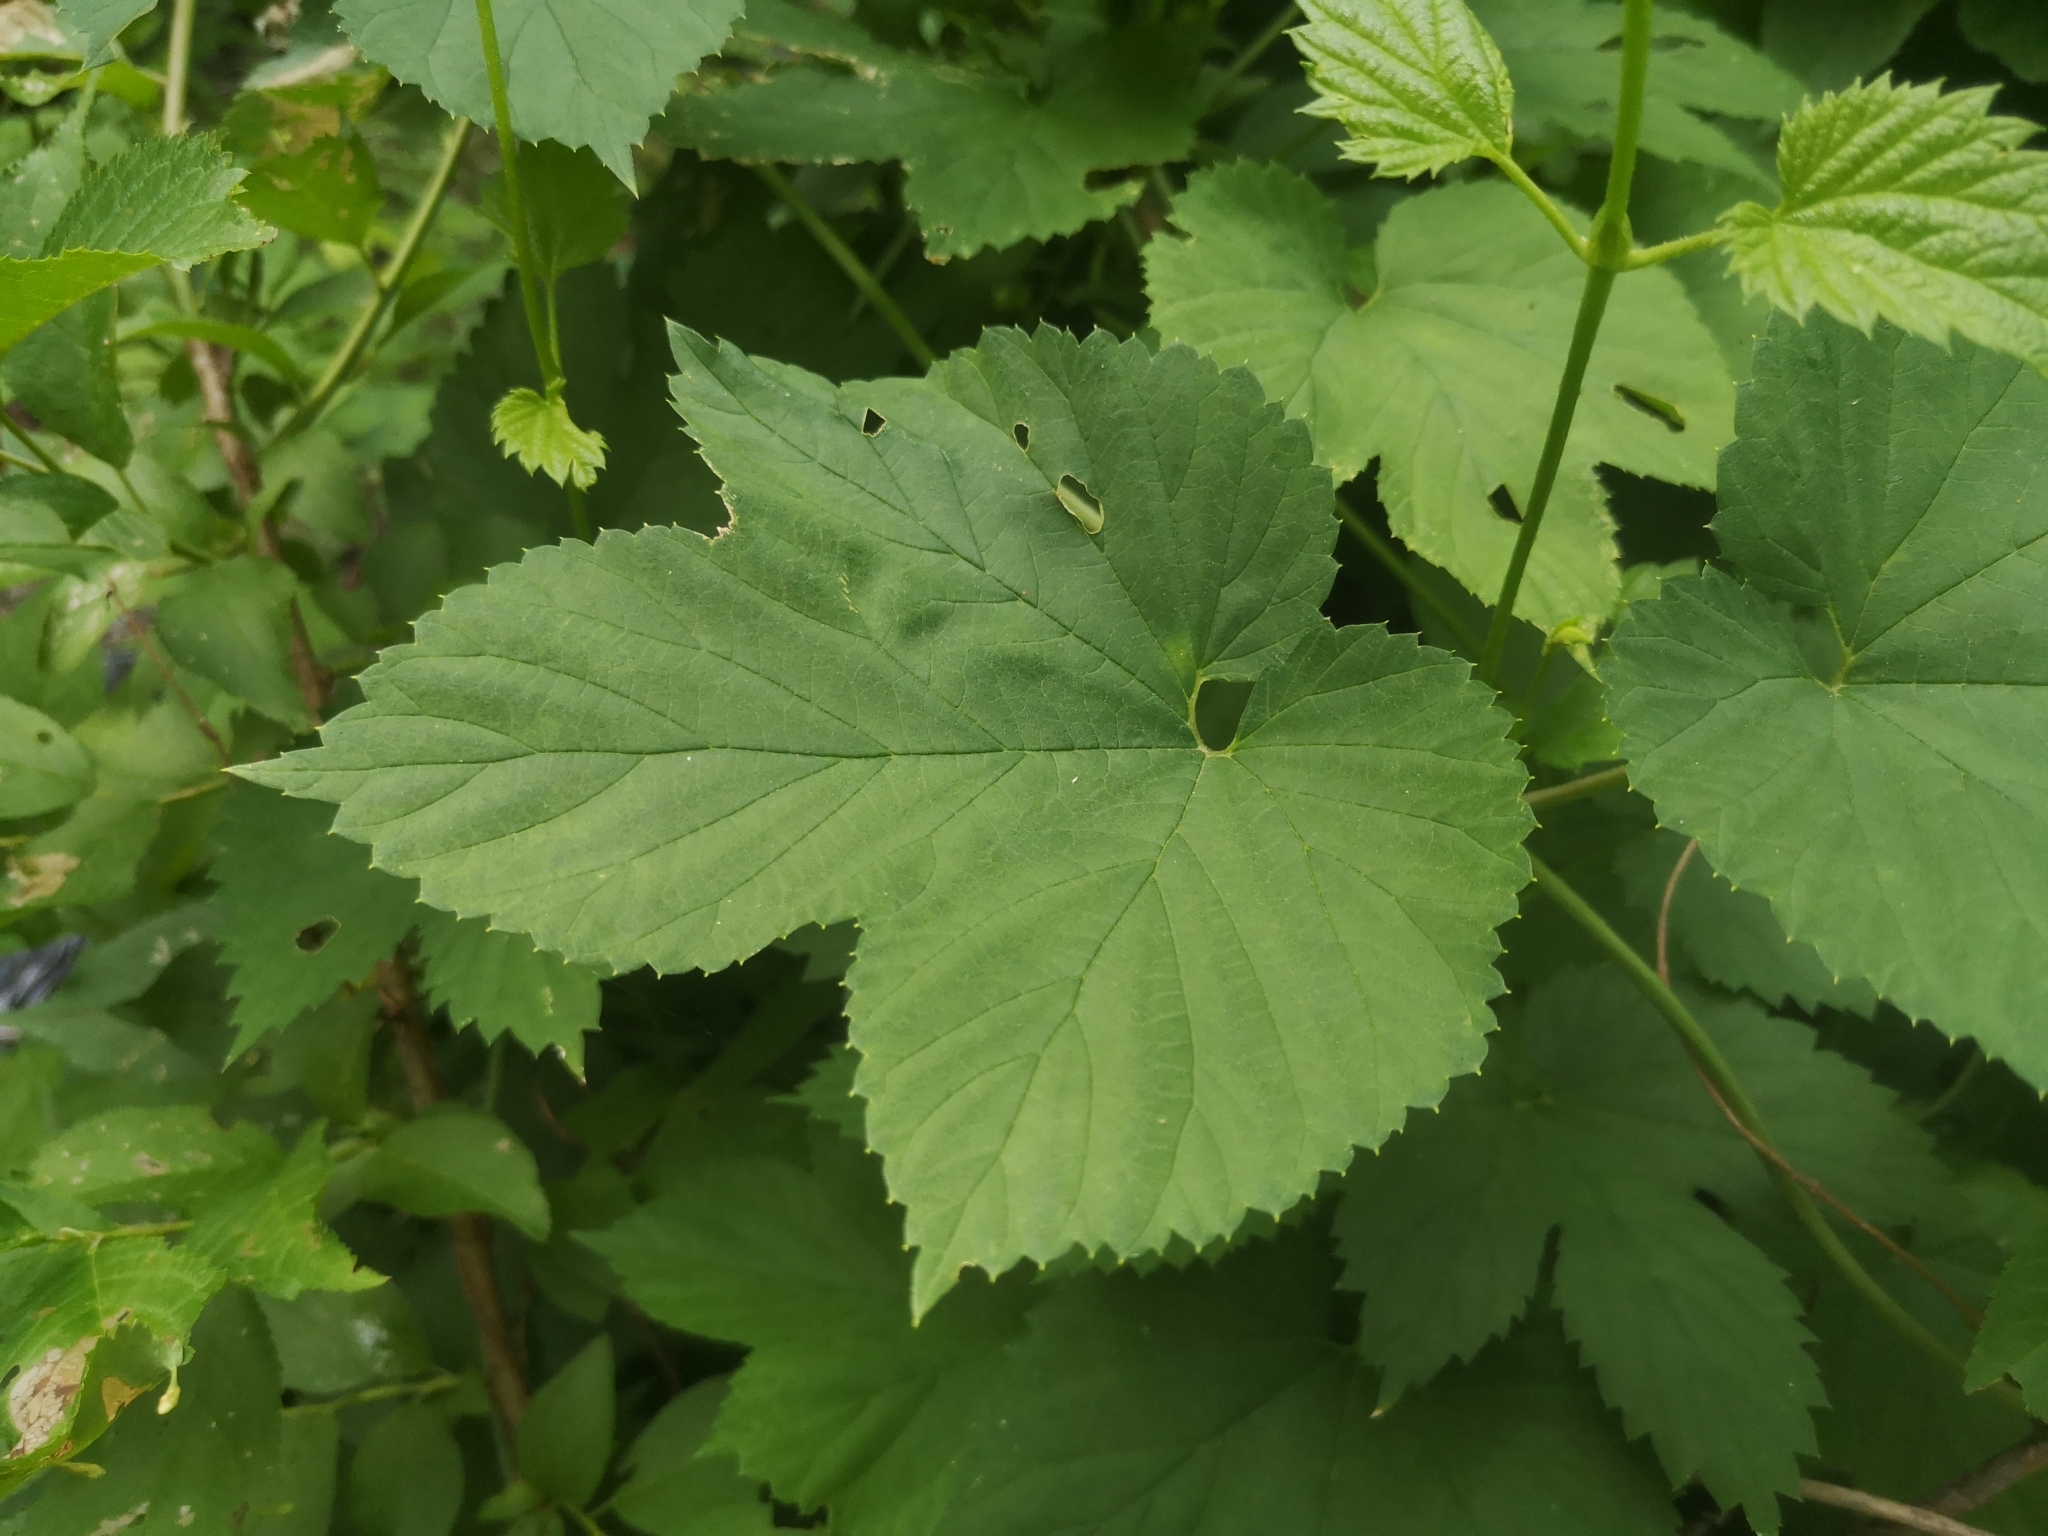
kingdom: Plantae
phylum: Tracheophyta
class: Magnoliopsida
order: Rosales
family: Cannabaceae
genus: Humulus
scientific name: Humulus lupulus
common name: Hop
